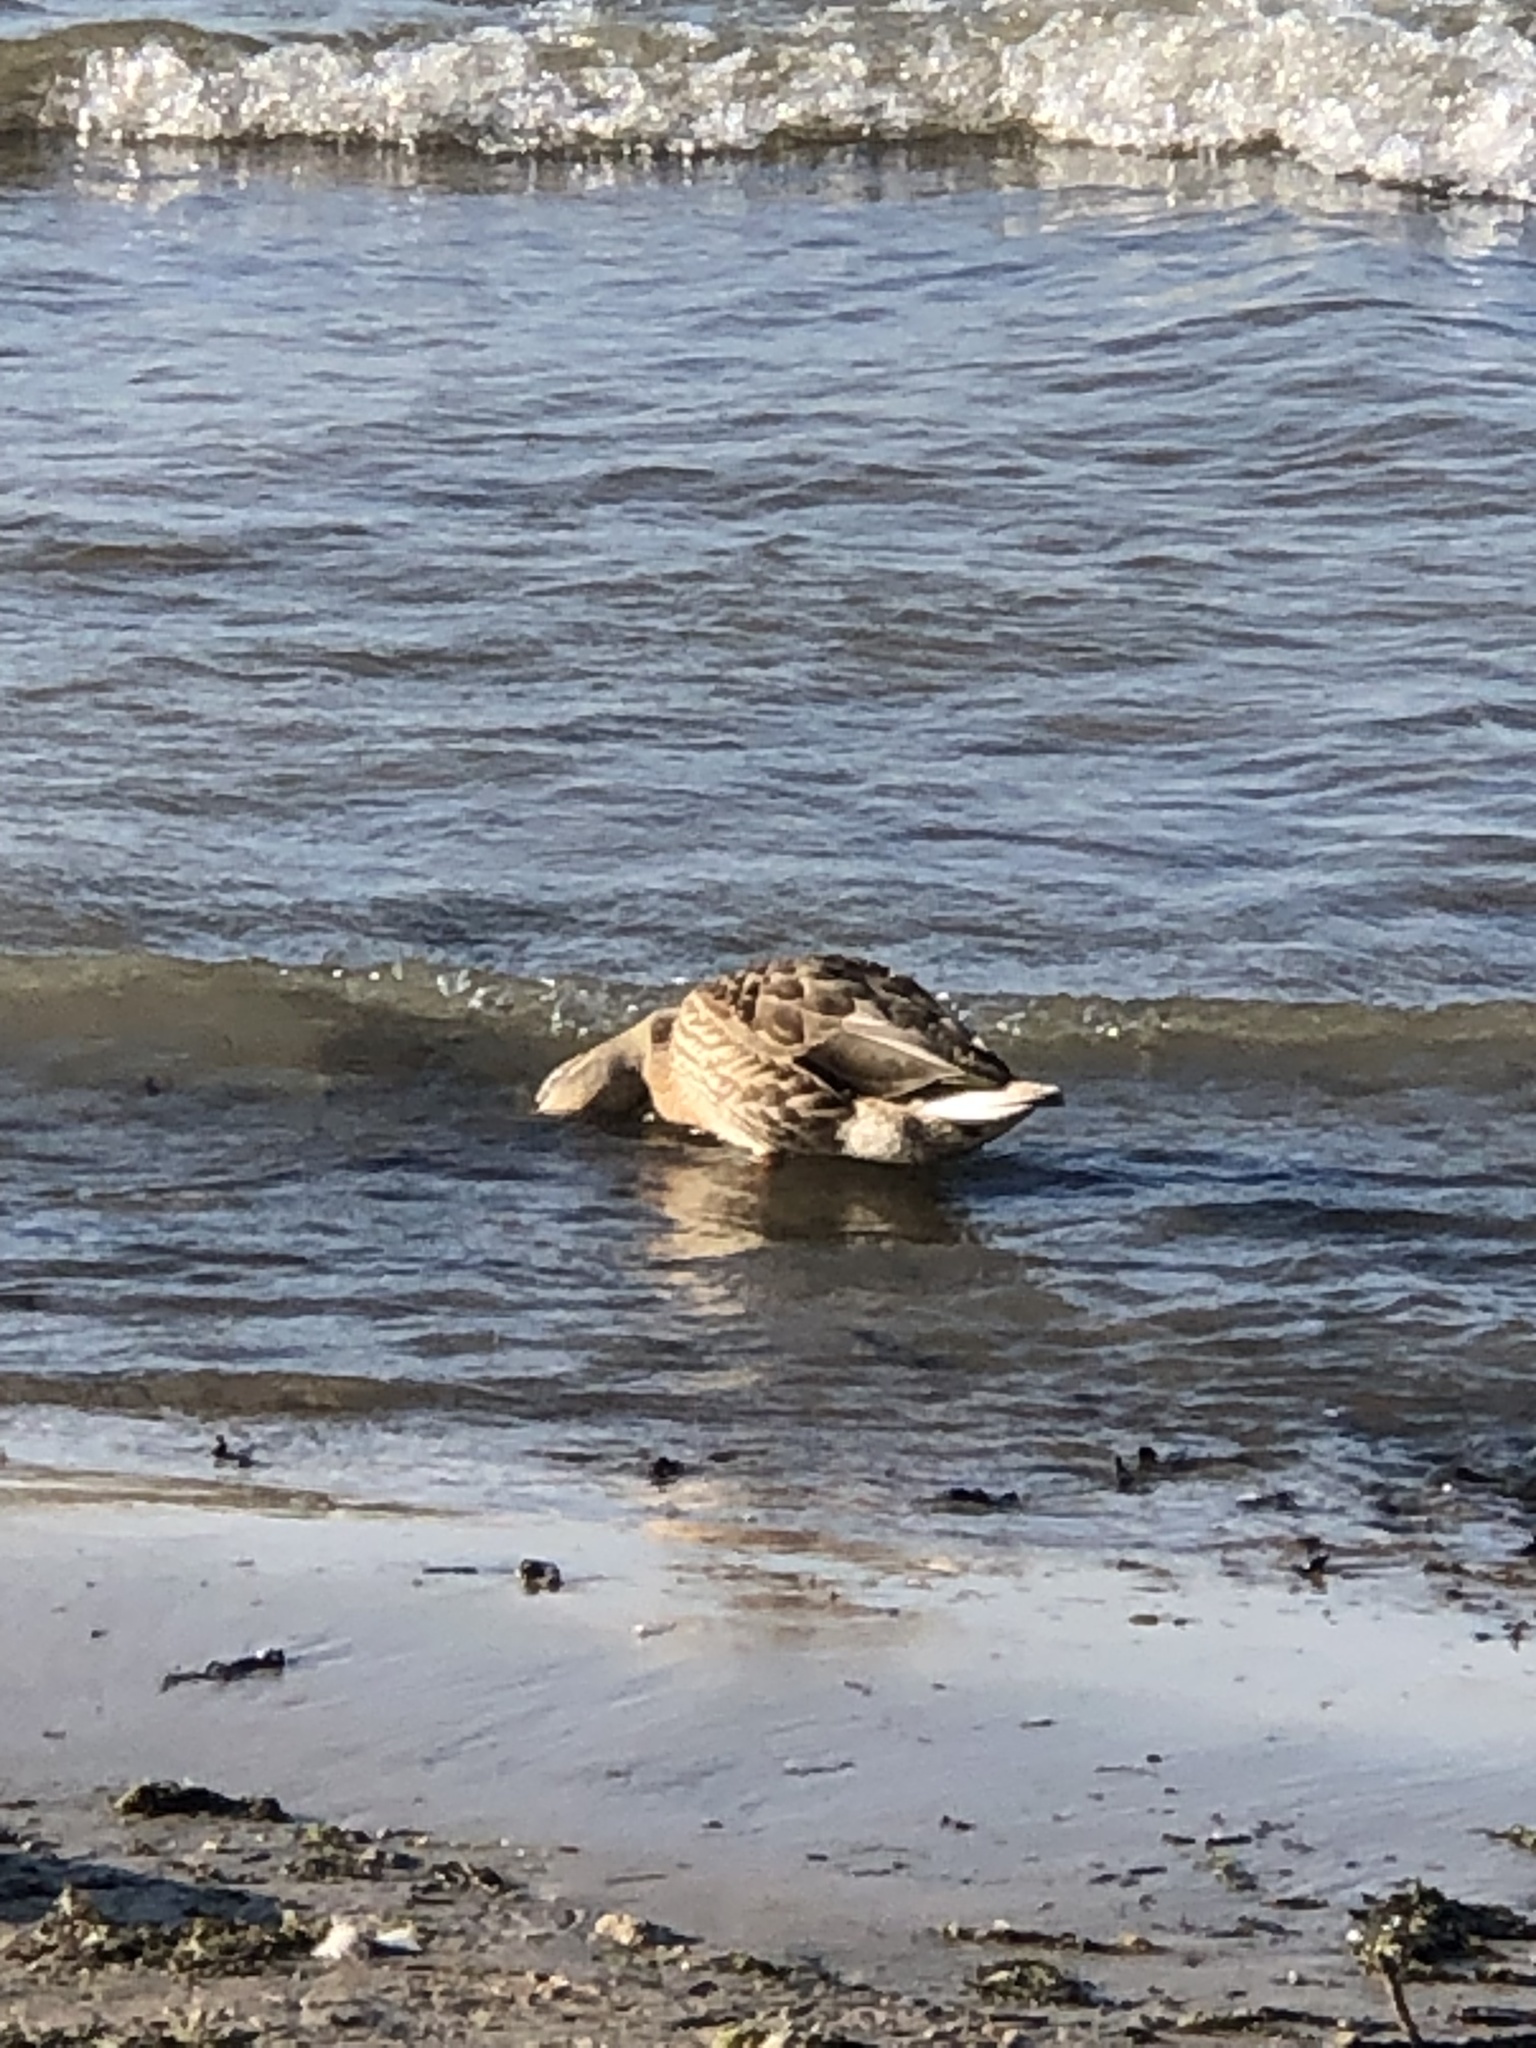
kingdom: Animalia
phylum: Chordata
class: Aves
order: Anseriformes
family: Anatidae
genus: Anas
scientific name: Anas platyrhynchos
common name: Mallard
